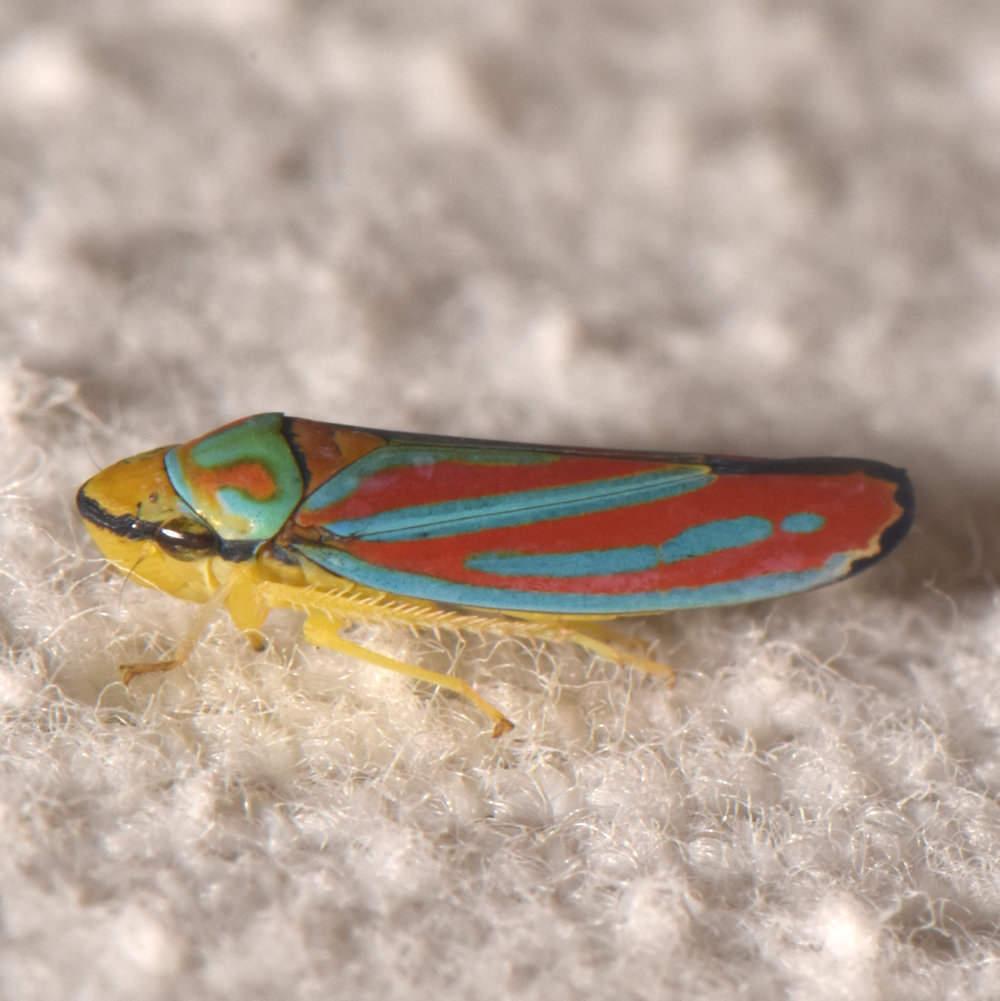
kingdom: Animalia
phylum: Arthropoda
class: Insecta
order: Hemiptera
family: Cicadellidae
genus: Graphocephala
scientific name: Graphocephala coccinea
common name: Candy-striped leafhopper
